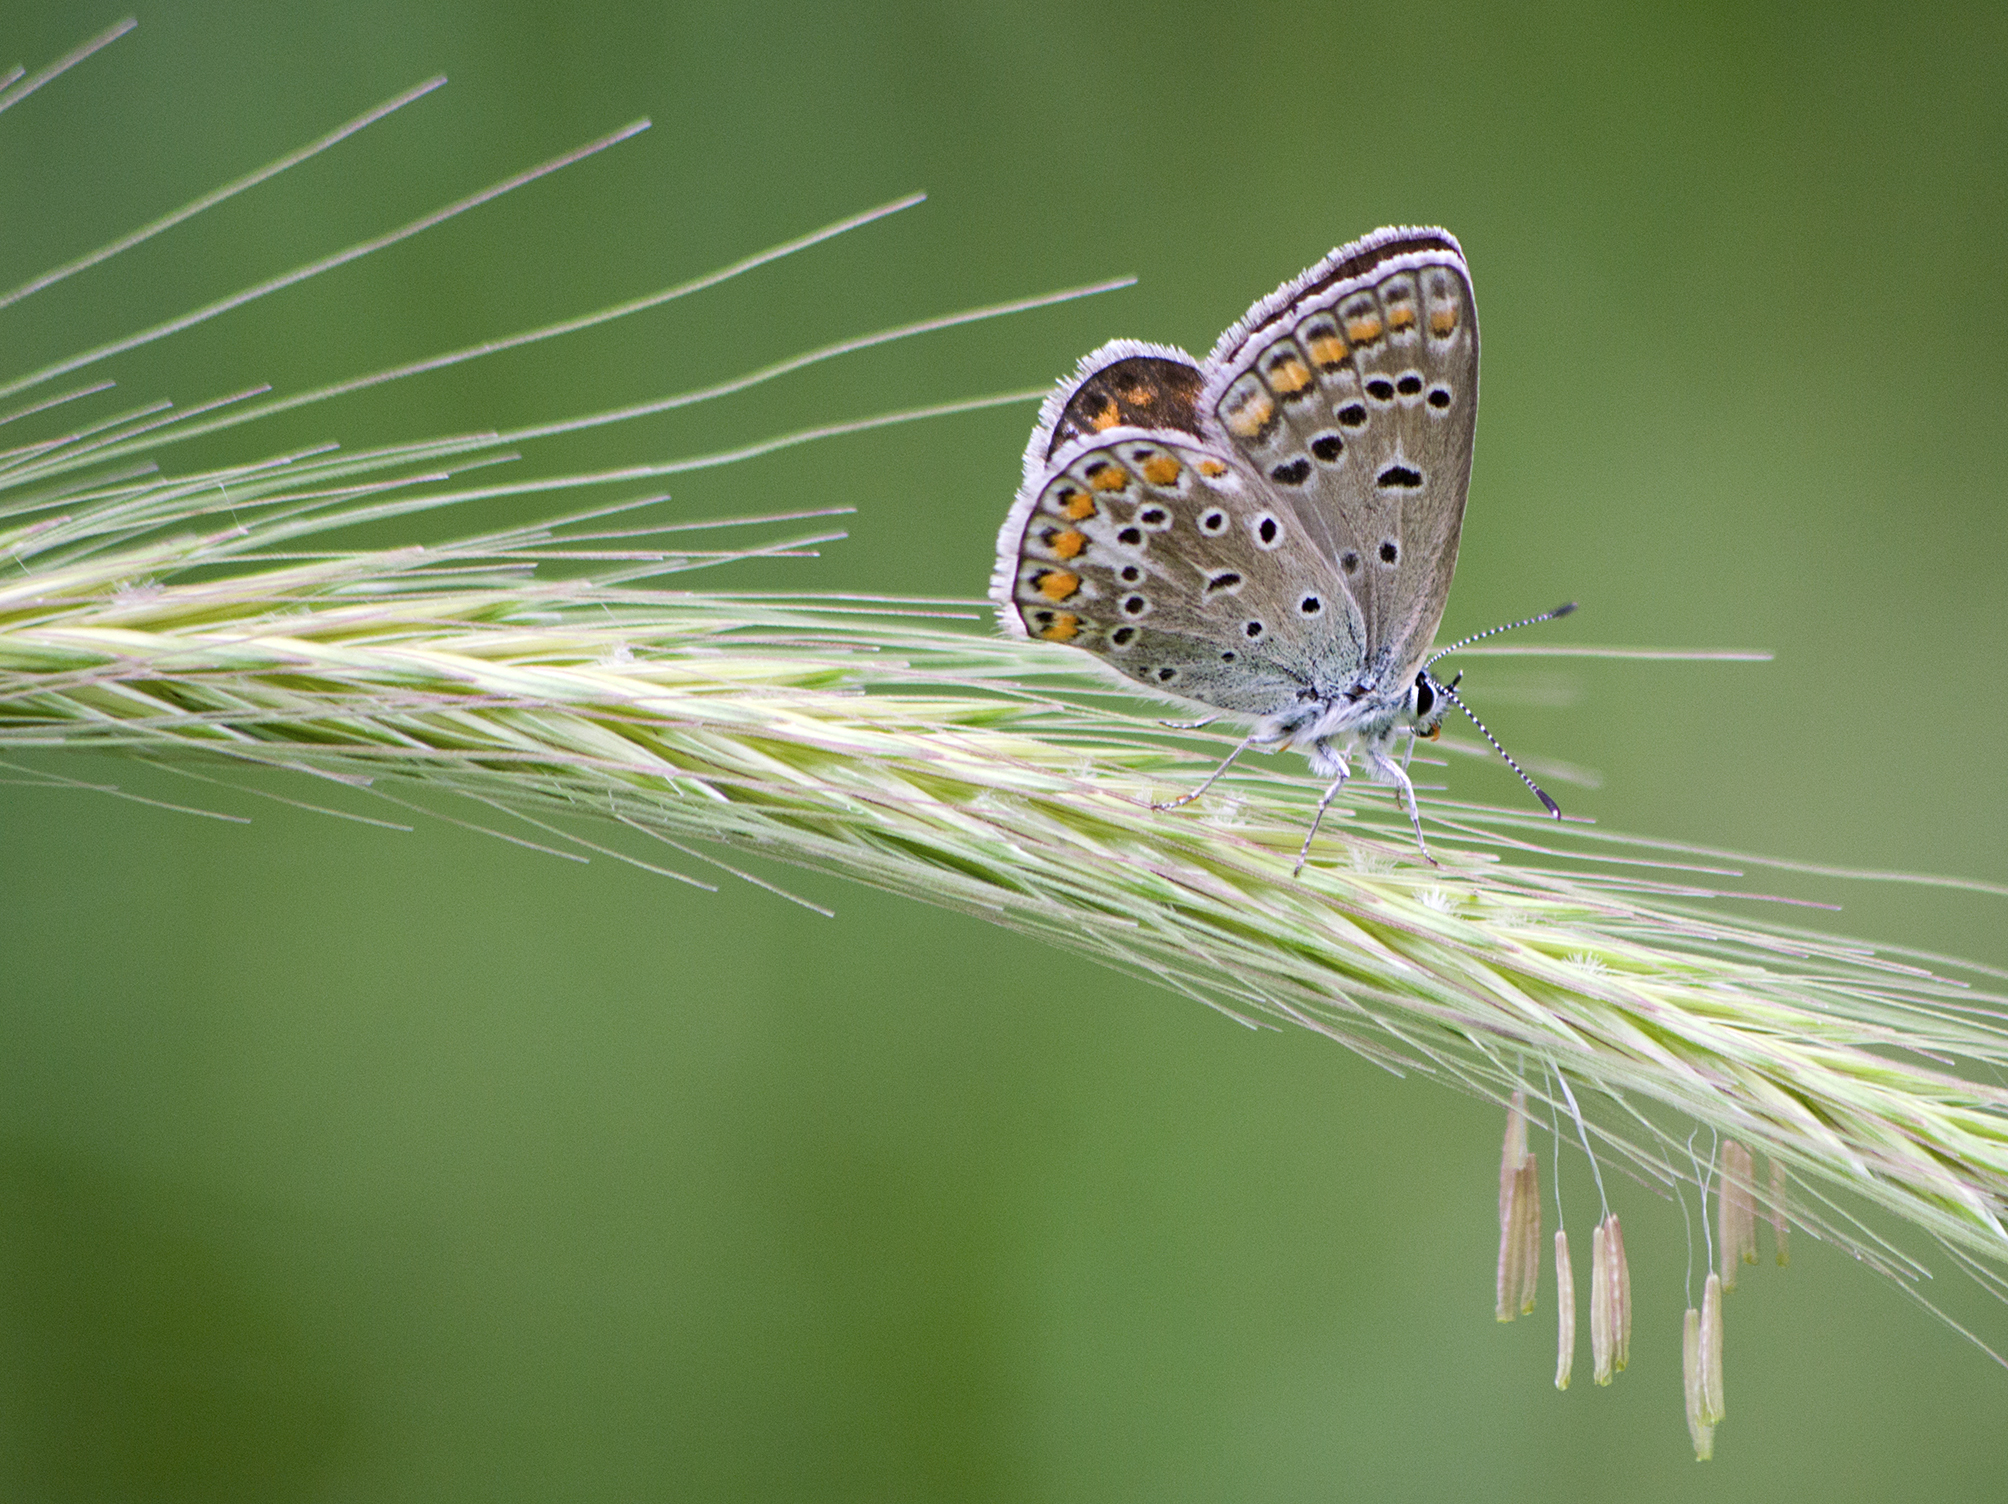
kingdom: Animalia
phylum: Arthropoda
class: Insecta
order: Lepidoptera
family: Lycaenidae
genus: Polyommatus
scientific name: Polyommatus icarus
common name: Common blue
